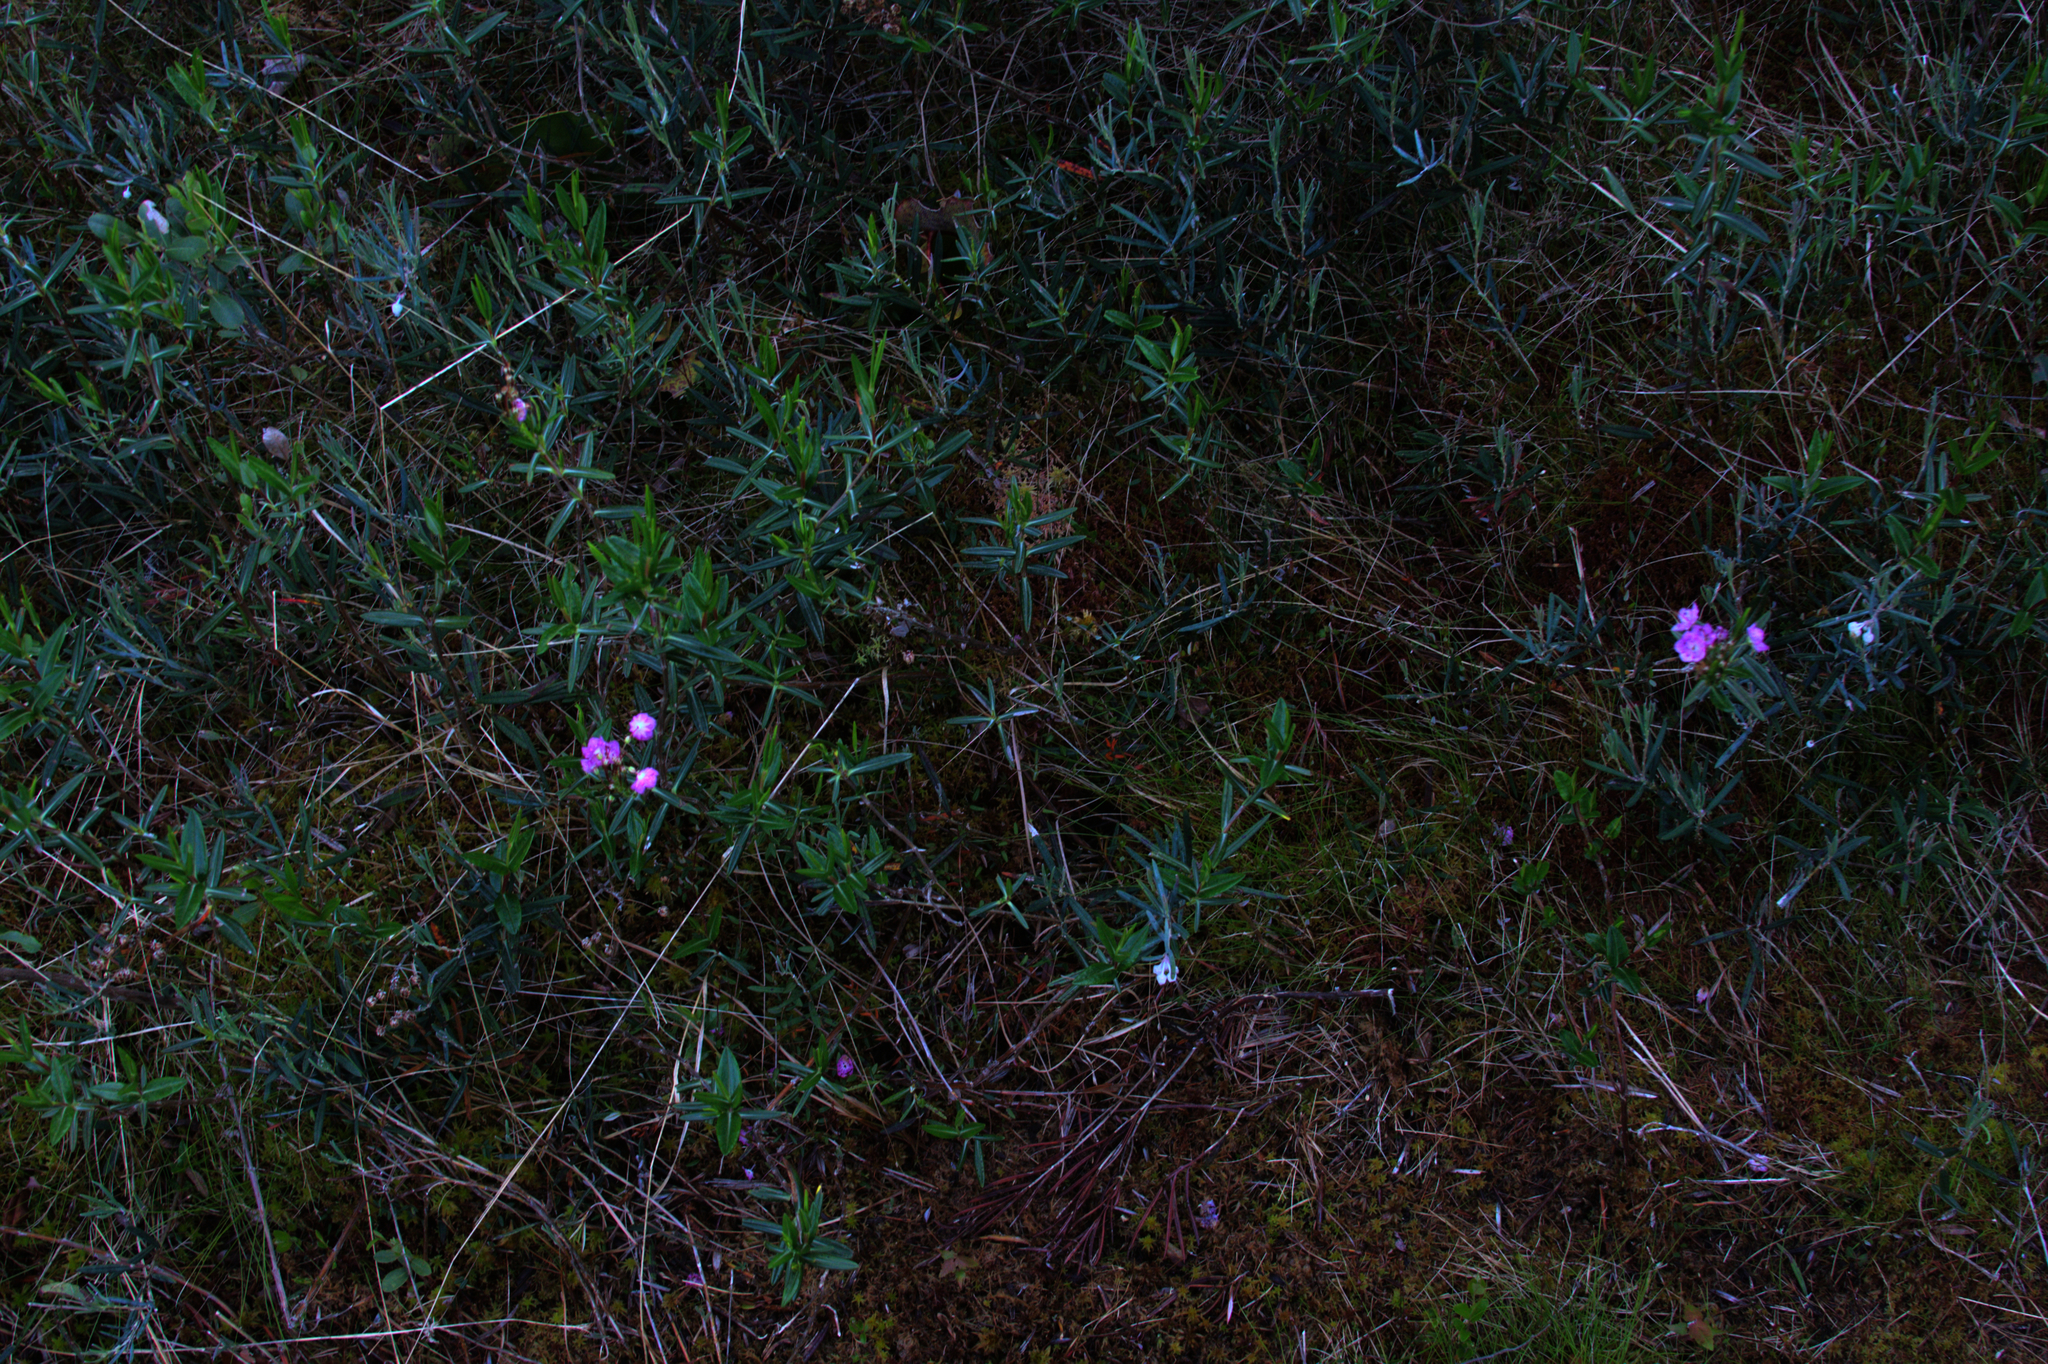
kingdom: Plantae
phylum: Tracheophyta
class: Magnoliopsida
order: Ericales
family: Ericaceae
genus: Kalmia
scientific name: Kalmia polifolia
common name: Bog-laurel
